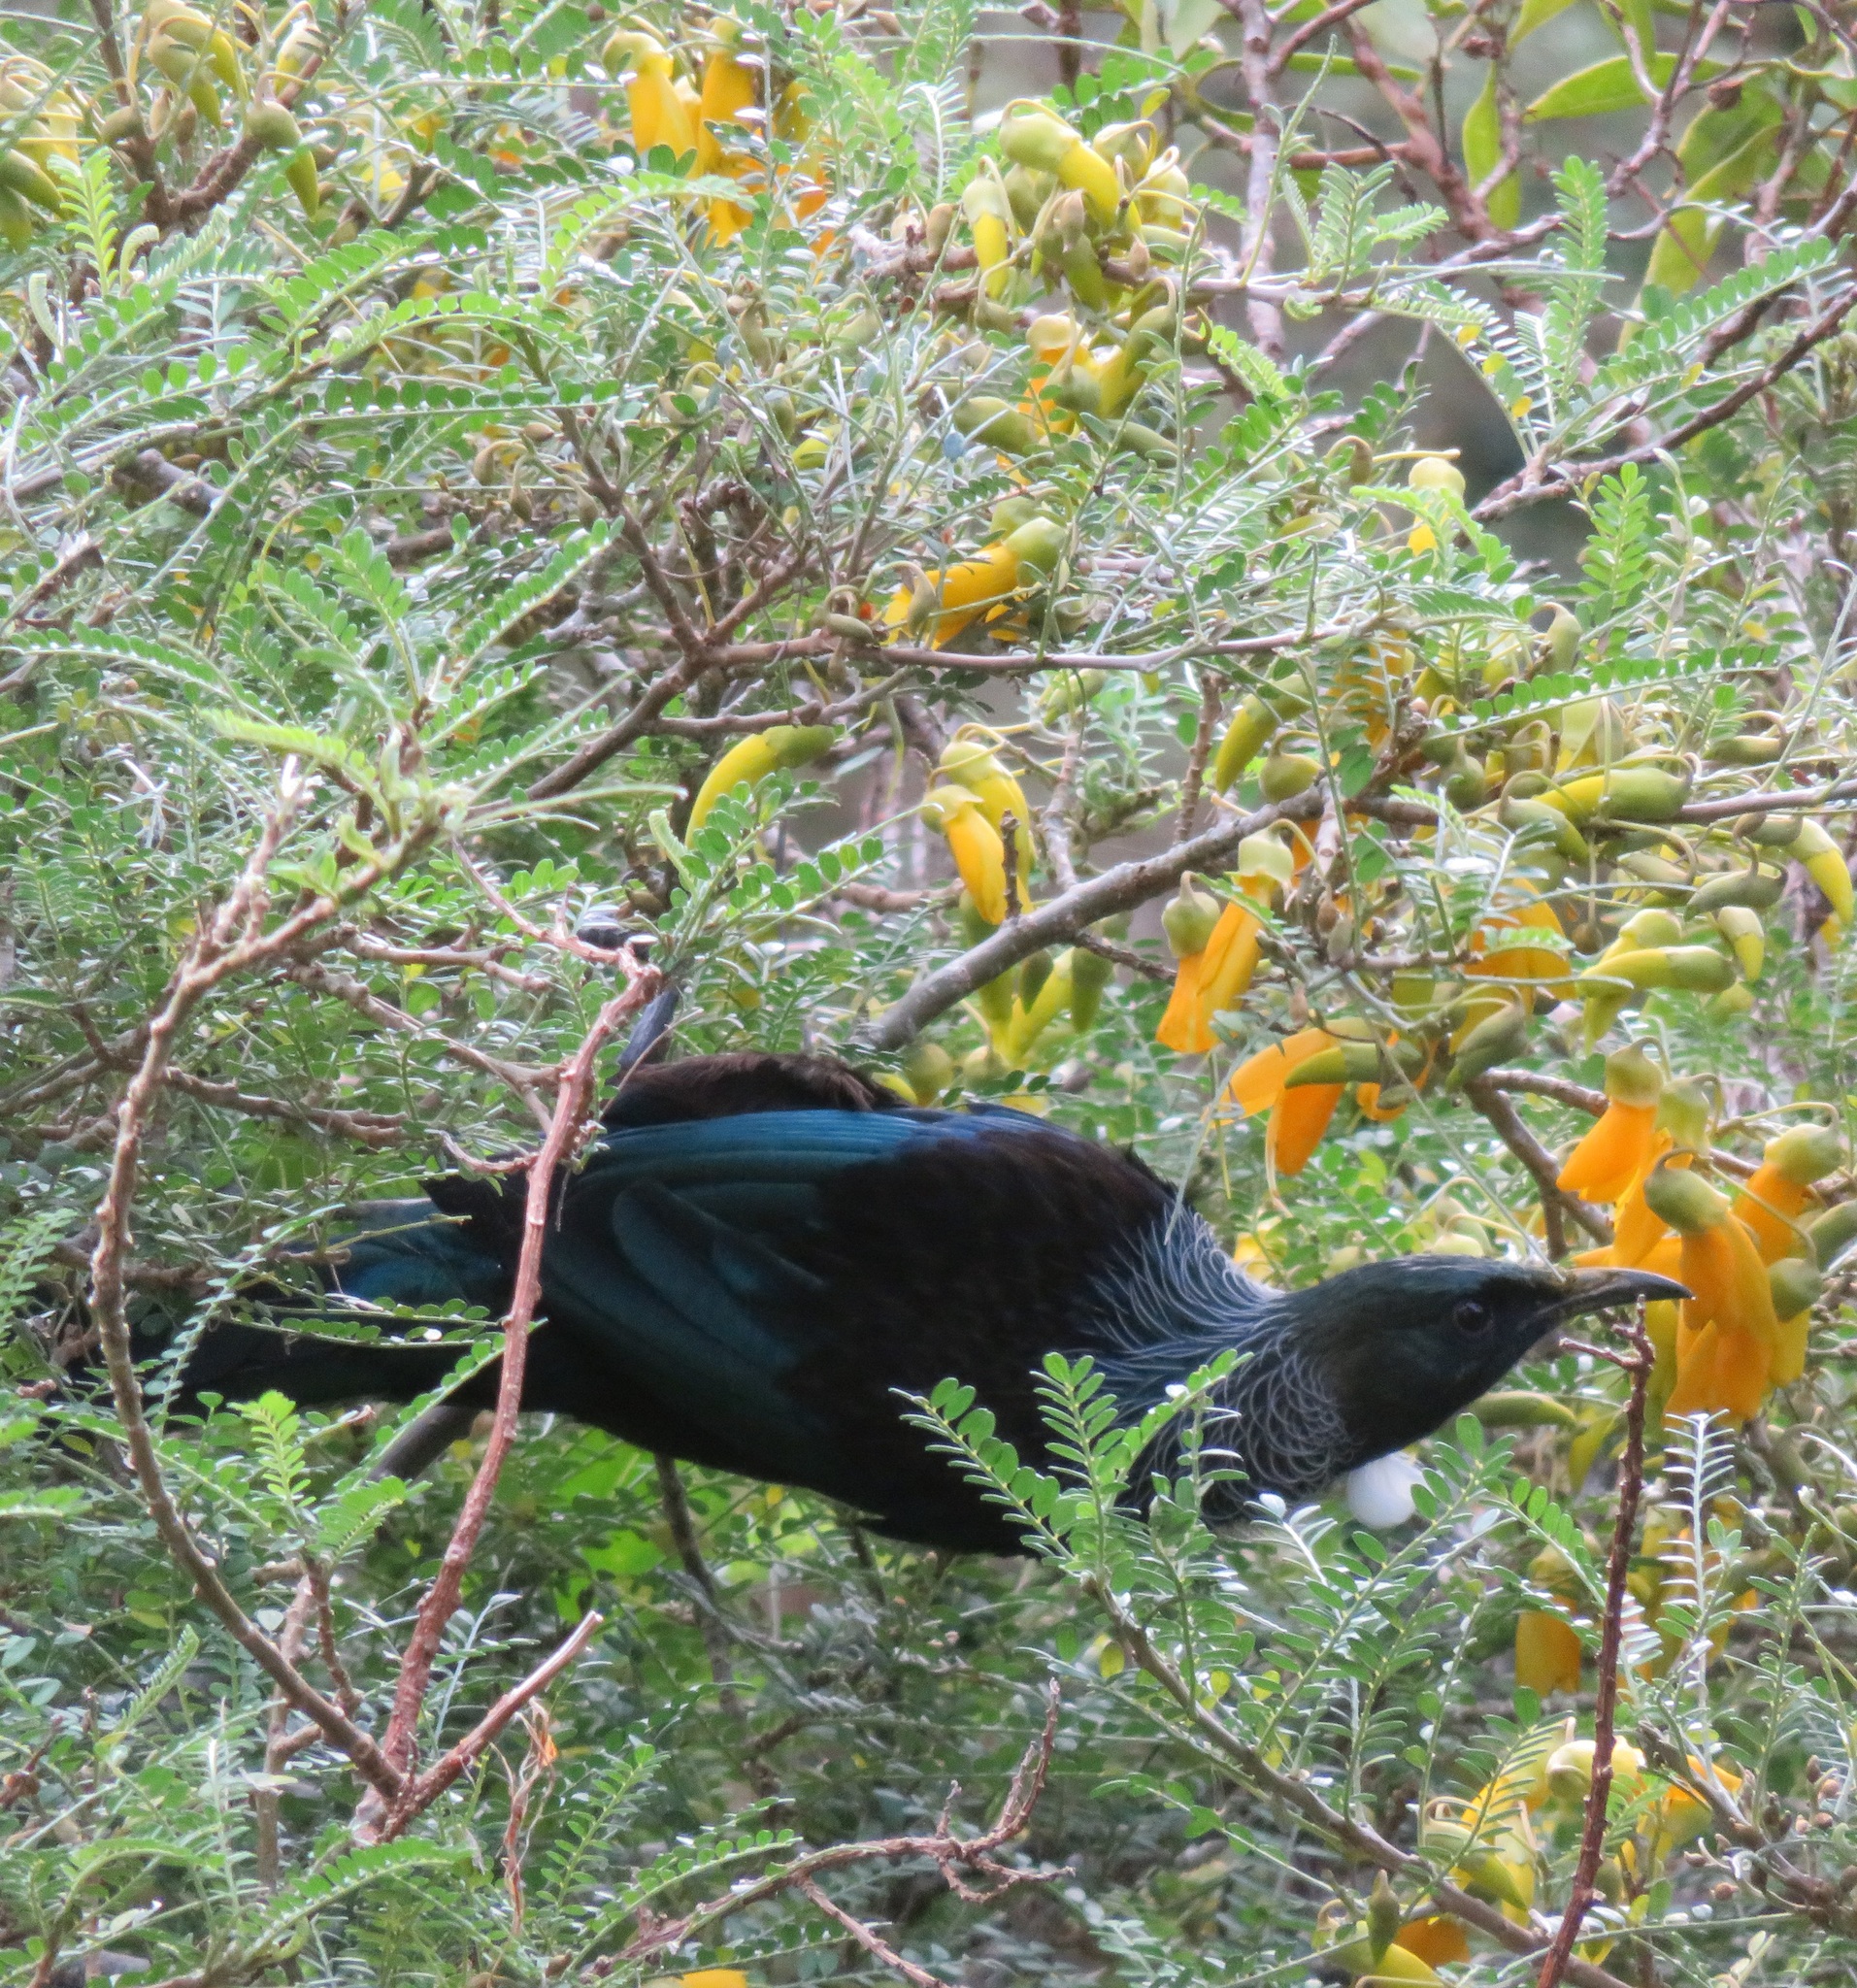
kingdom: Animalia
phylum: Chordata
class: Aves
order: Passeriformes
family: Meliphagidae
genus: Prosthemadera
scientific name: Prosthemadera novaeseelandiae
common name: Tui
